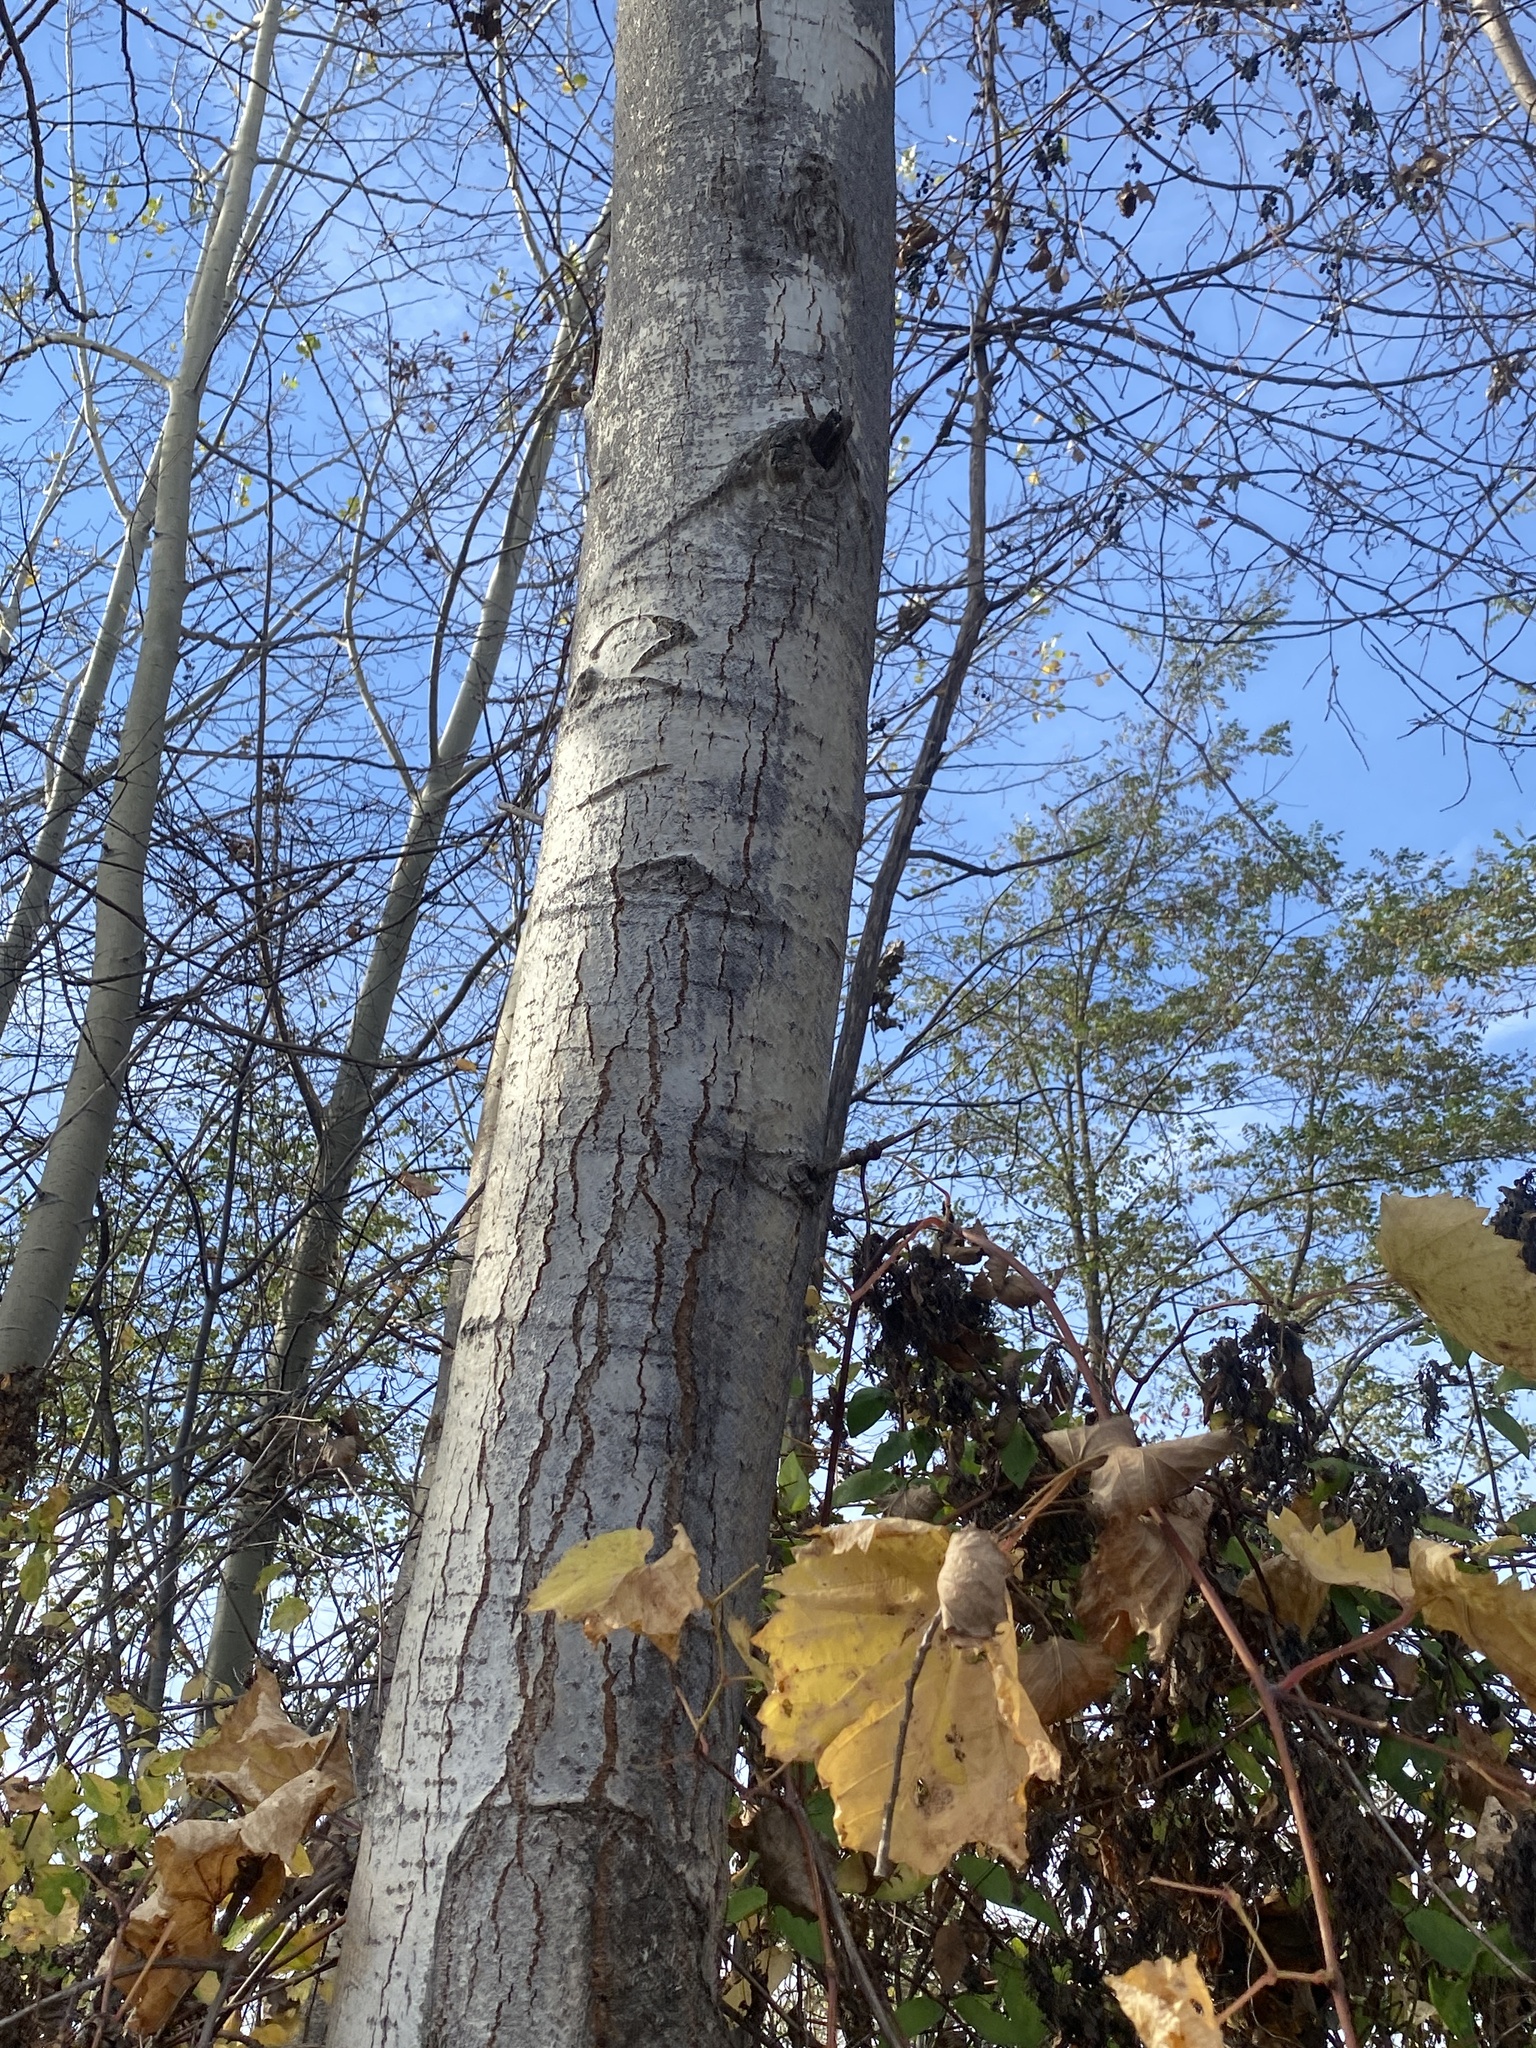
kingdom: Plantae
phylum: Tracheophyta
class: Magnoliopsida
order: Malpighiales
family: Salicaceae
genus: Populus
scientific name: Populus grandidentata
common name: Bigtooth aspen
